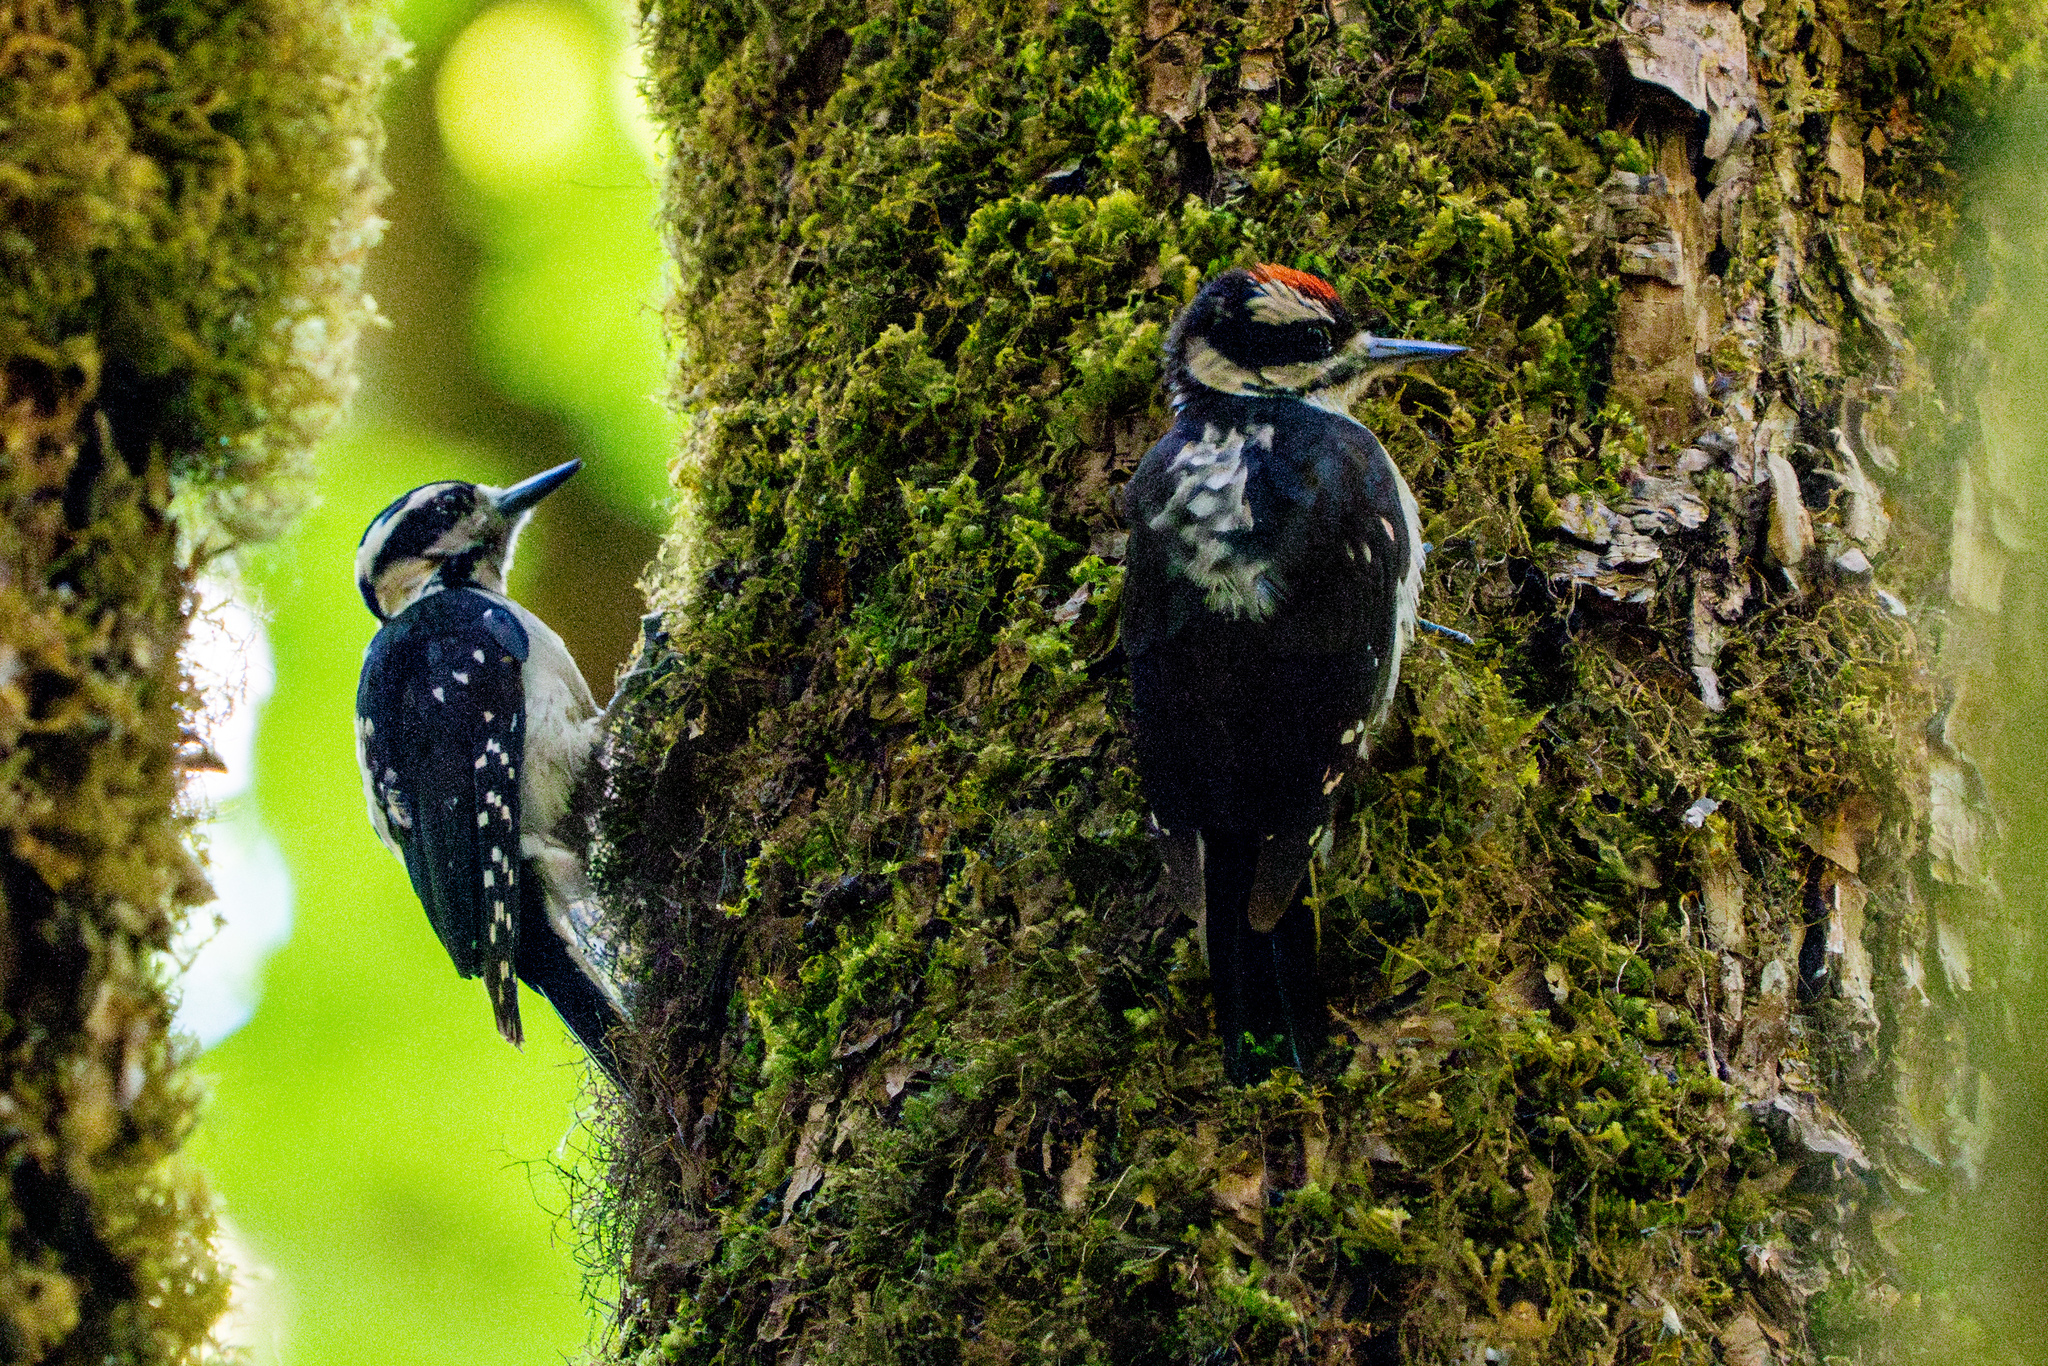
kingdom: Animalia
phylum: Chordata
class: Aves
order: Piciformes
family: Picidae
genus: Leuconotopicus
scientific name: Leuconotopicus villosus
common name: Hairy woodpecker
